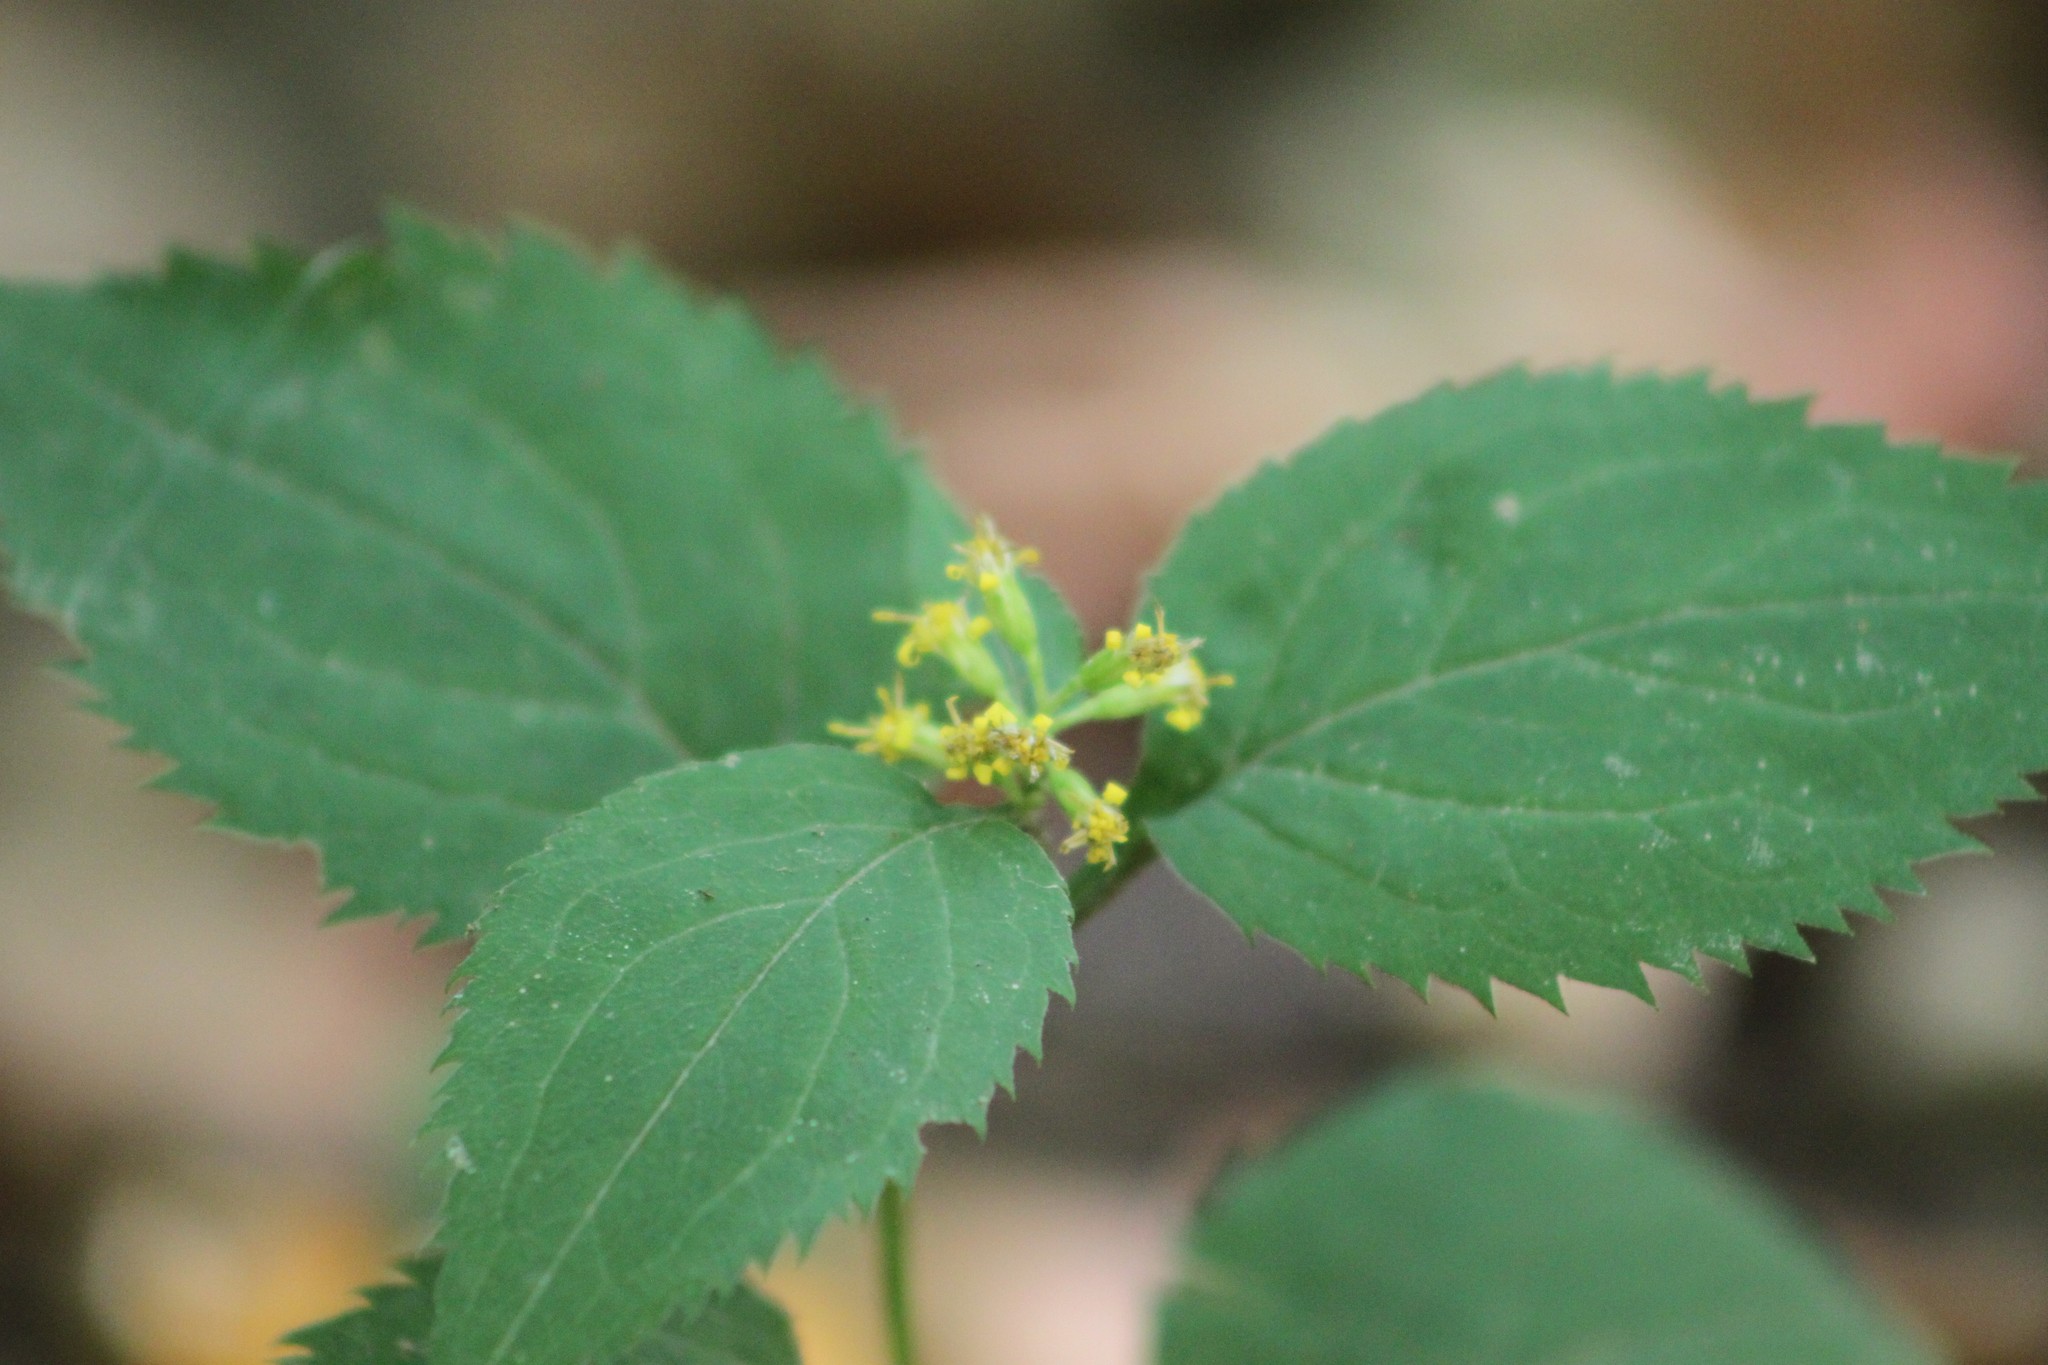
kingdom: Plantae
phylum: Tracheophyta
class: Magnoliopsida
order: Asterales
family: Asteraceae
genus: Solidago
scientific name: Solidago flexicaulis
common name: Zig-zag goldenrod
